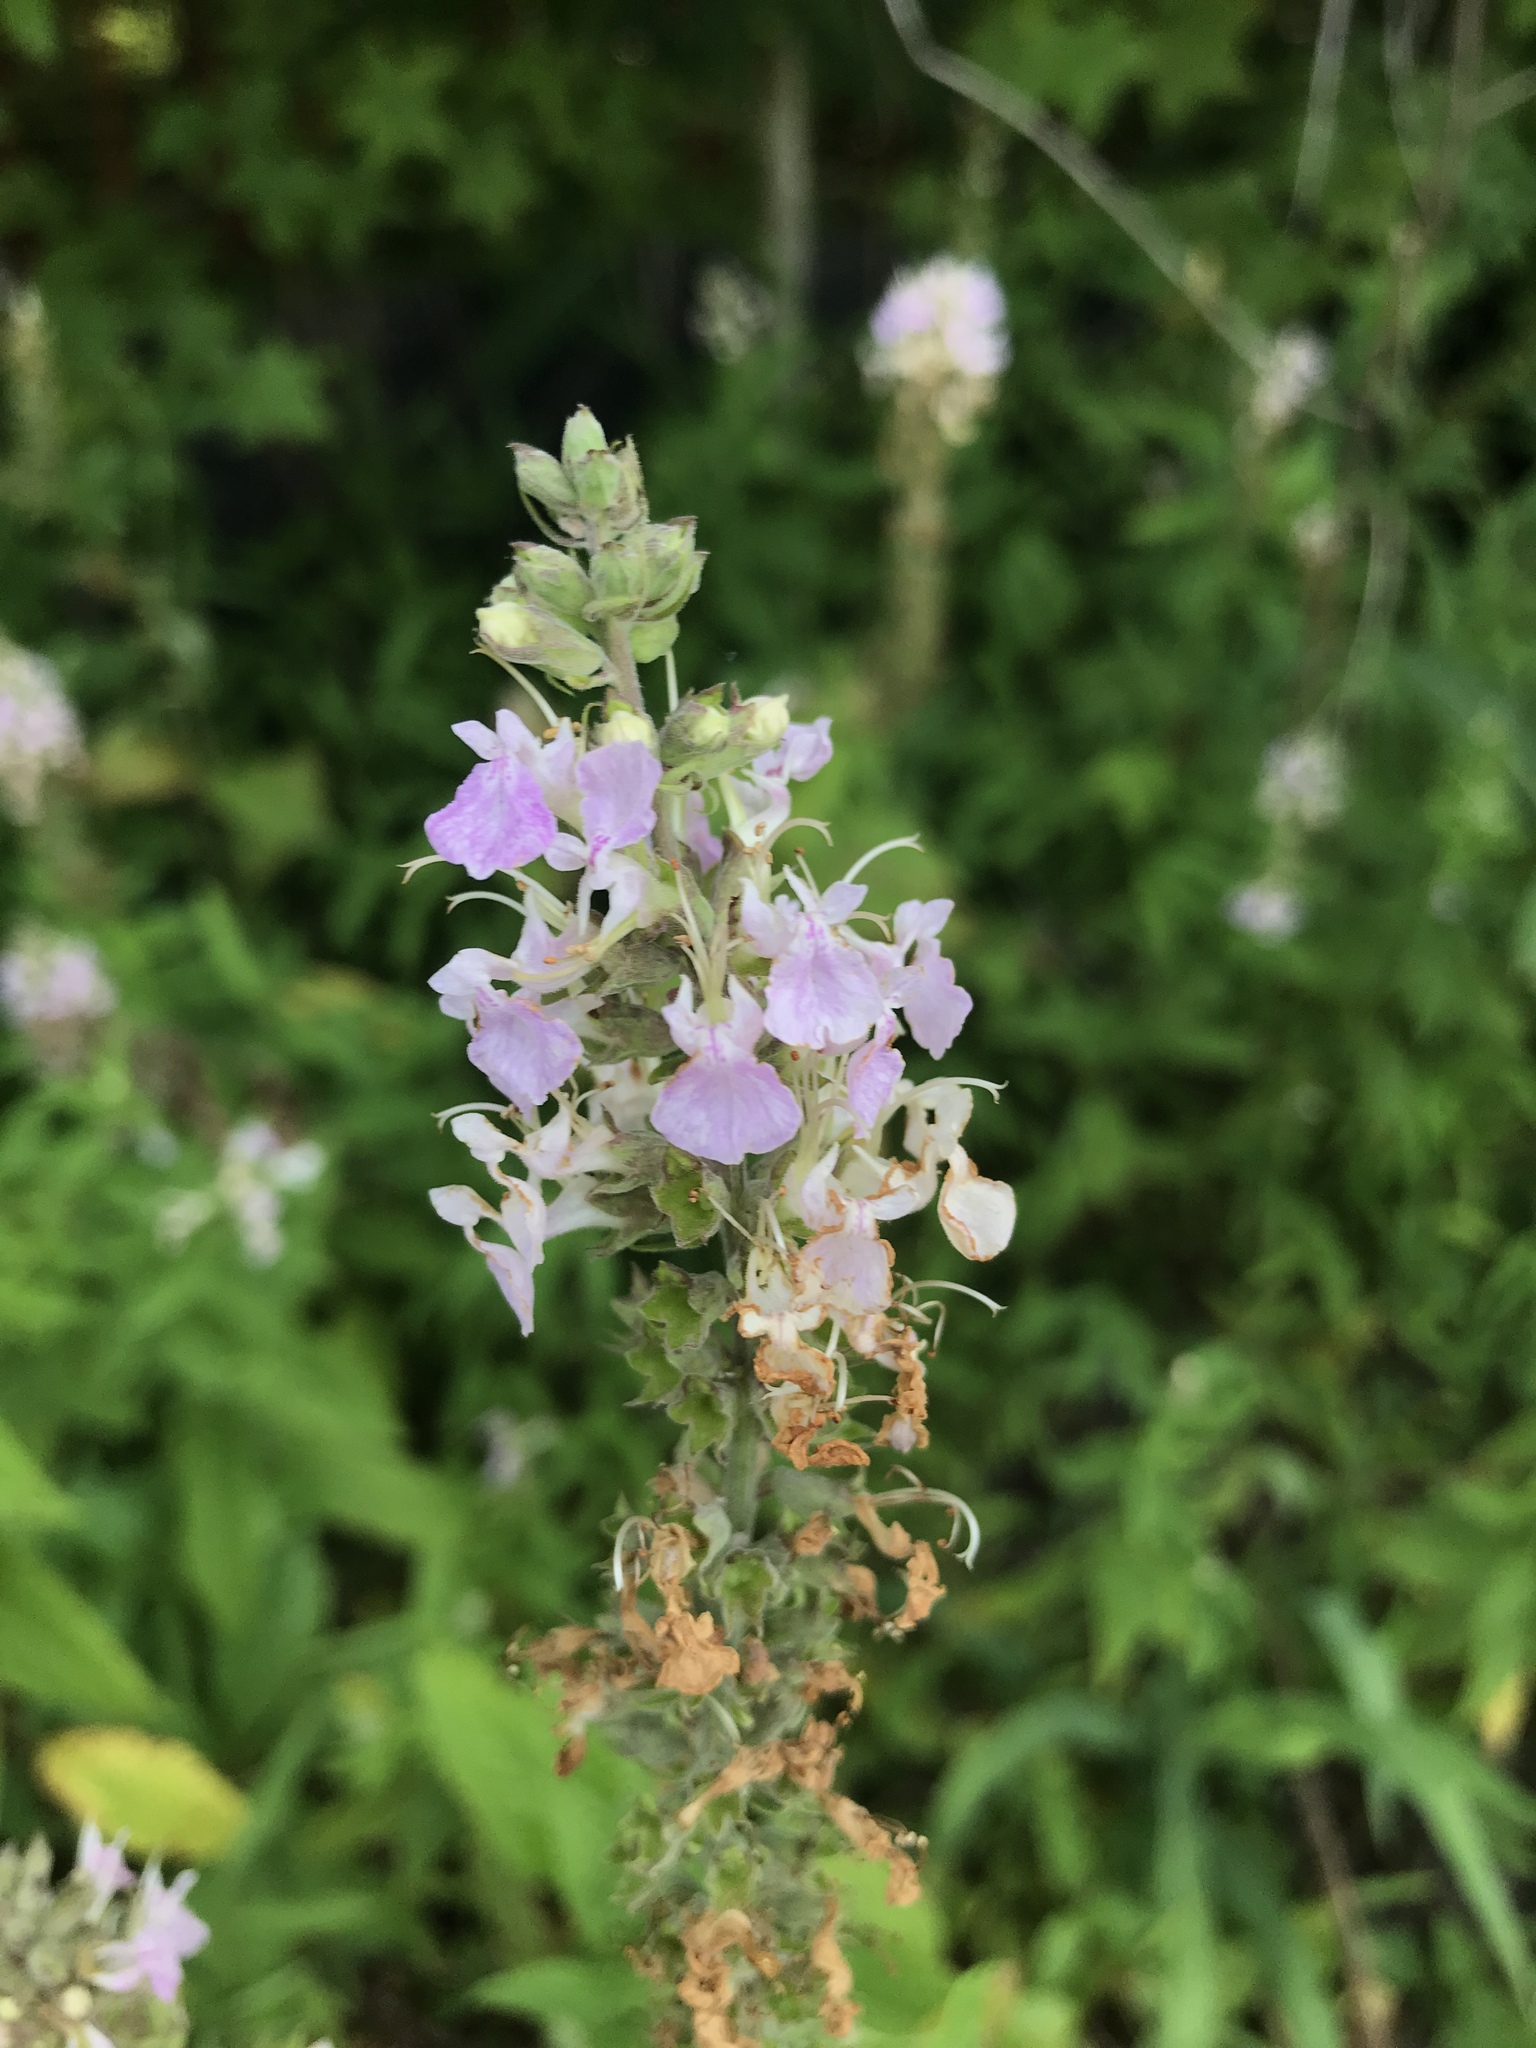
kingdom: Plantae
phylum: Tracheophyta
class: Magnoliopsida
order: Lamiales
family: Lamiaceae
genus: Teucrium
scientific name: Teucrium canadense
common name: American germander
